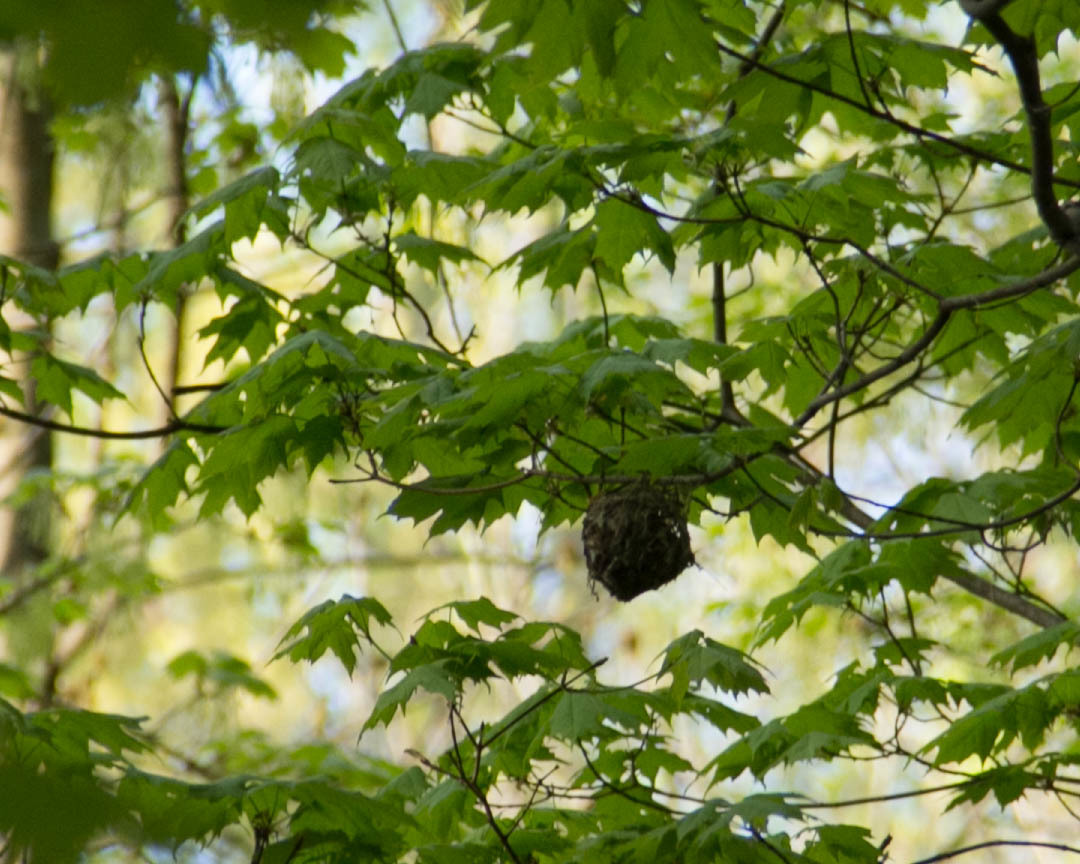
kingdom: Animalia
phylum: Chordata
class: Aves
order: Passeriformes
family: Icteridae
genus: Icterus
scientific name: Icterus galbula
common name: Baltimore oriole
